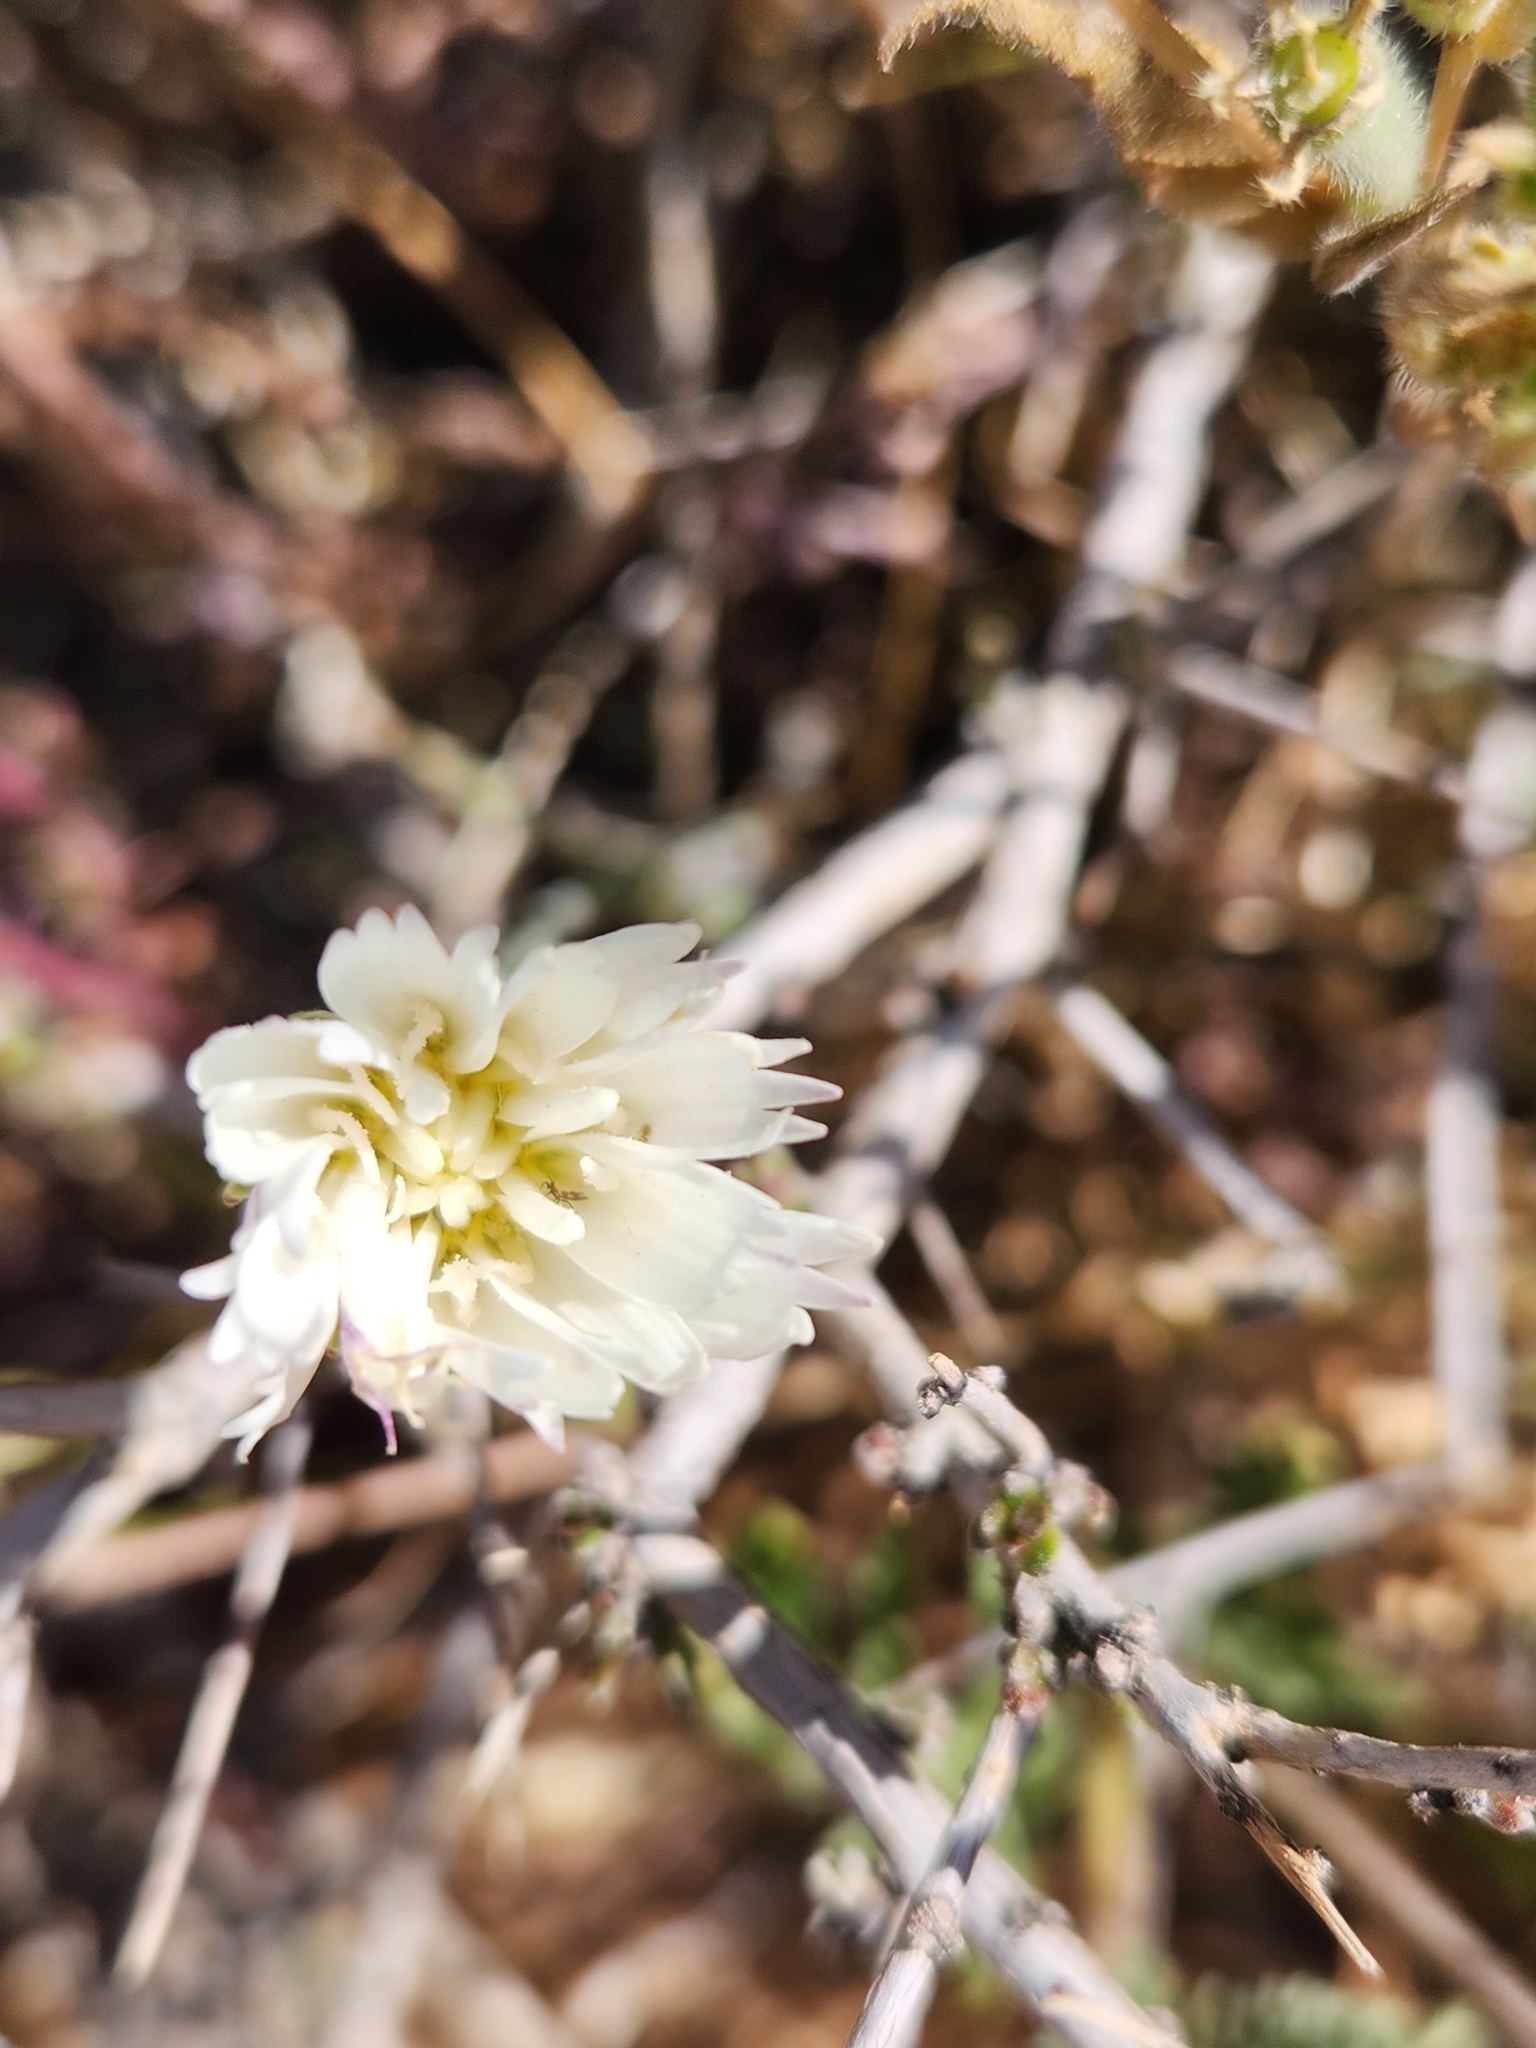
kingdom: Plantae
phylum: Tracheophyta
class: Magnoliopsida
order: Asterales
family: Asteraceae
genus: Rafinesquia
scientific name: Rafinesquia neomexicana
